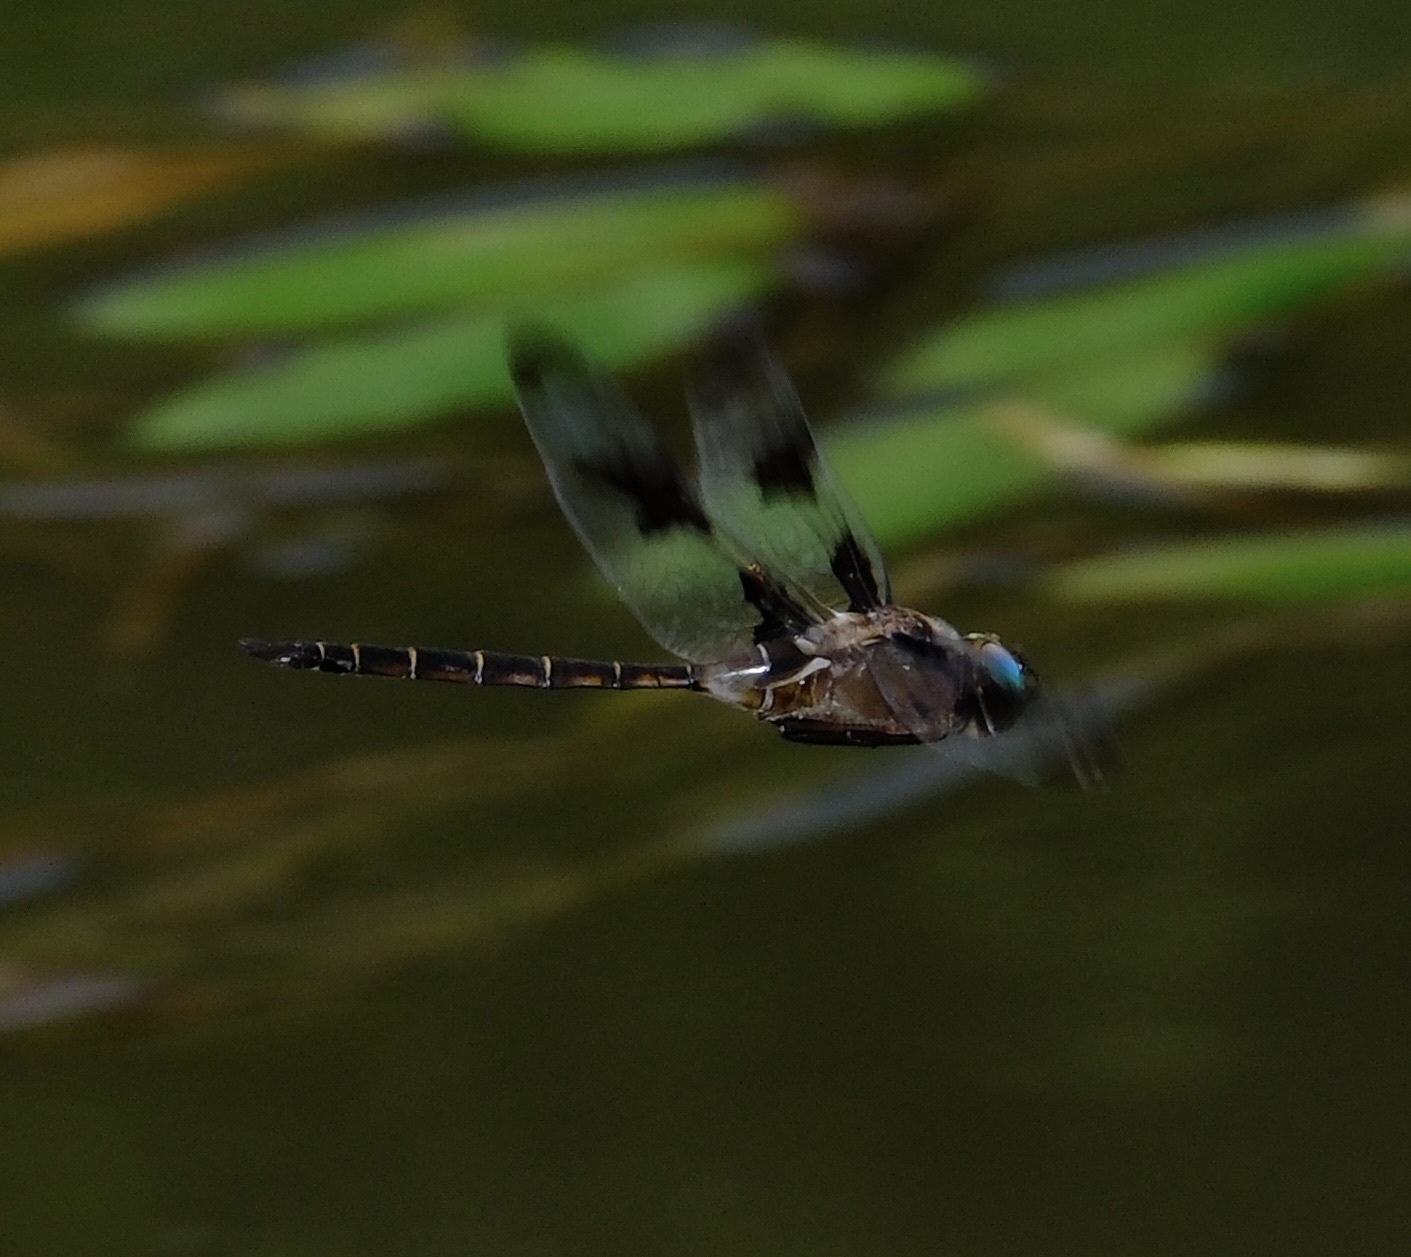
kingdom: Animalia
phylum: Arthropoda
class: Insecta
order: Odonata
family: Corduliidae
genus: Epitheca
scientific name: Epitheca princeps
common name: Prince baskettail
